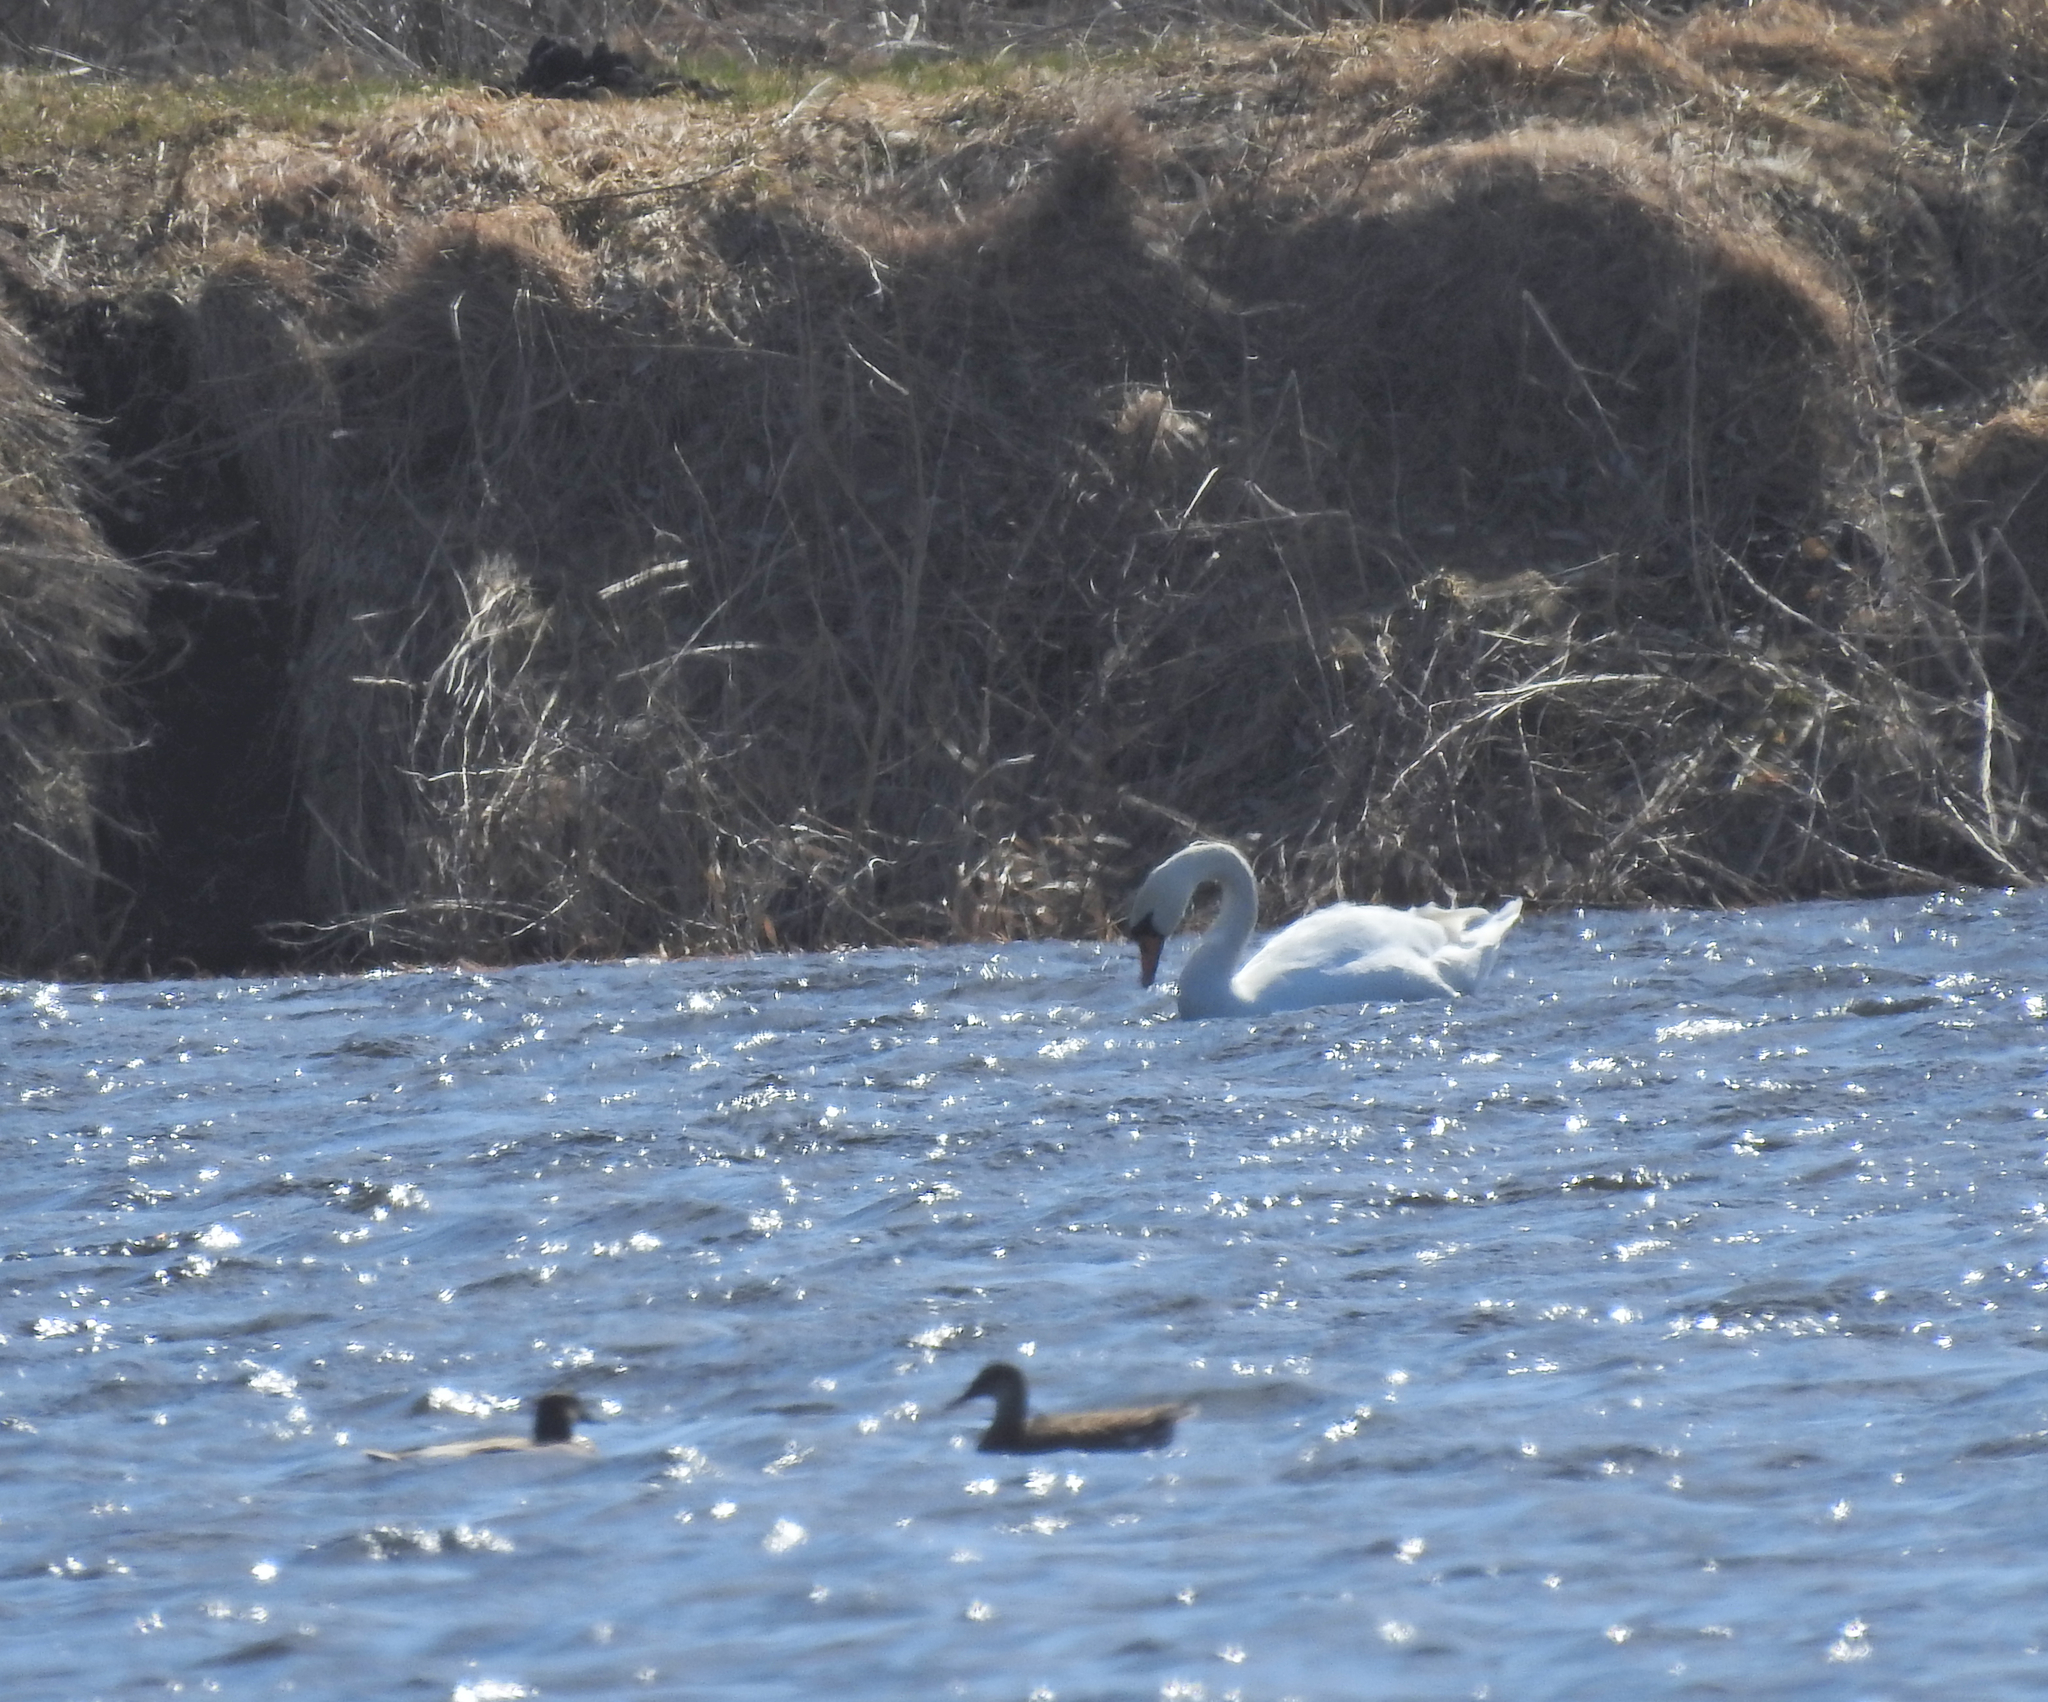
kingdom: Animalia
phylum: Chordata
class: Aves
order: Anseriformes
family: Anatidae
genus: Cygnus
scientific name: Cygnus olor
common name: Mute swan
